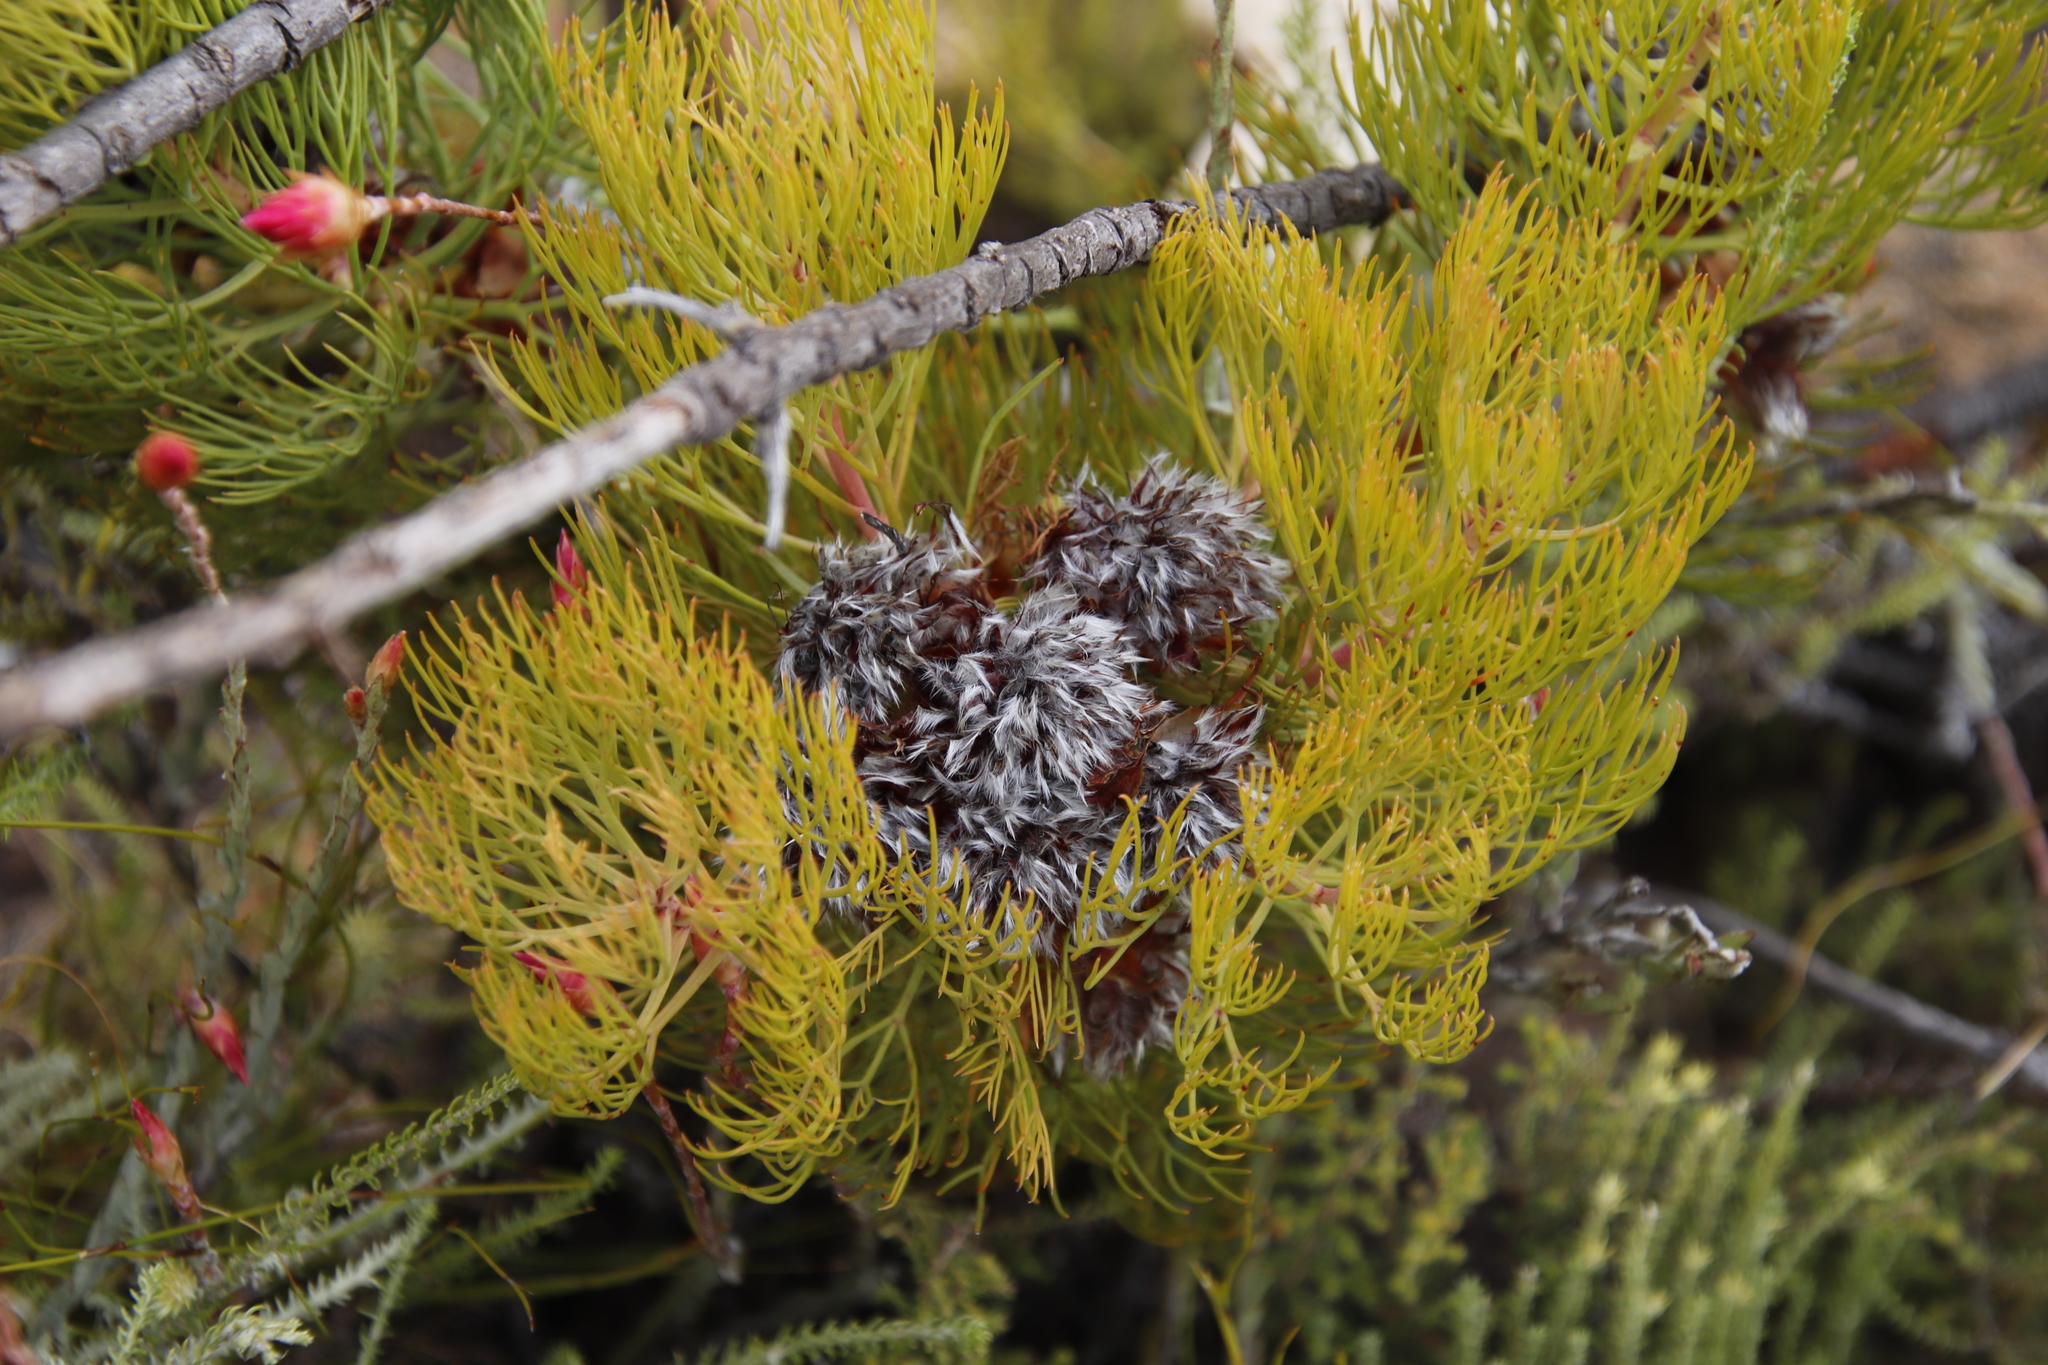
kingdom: Plantae
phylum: Tracheophyta
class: Magnoliopsida
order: Proteales
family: Proteaceae
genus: Serruria
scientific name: Serruria rosea
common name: Rose spiderhead
